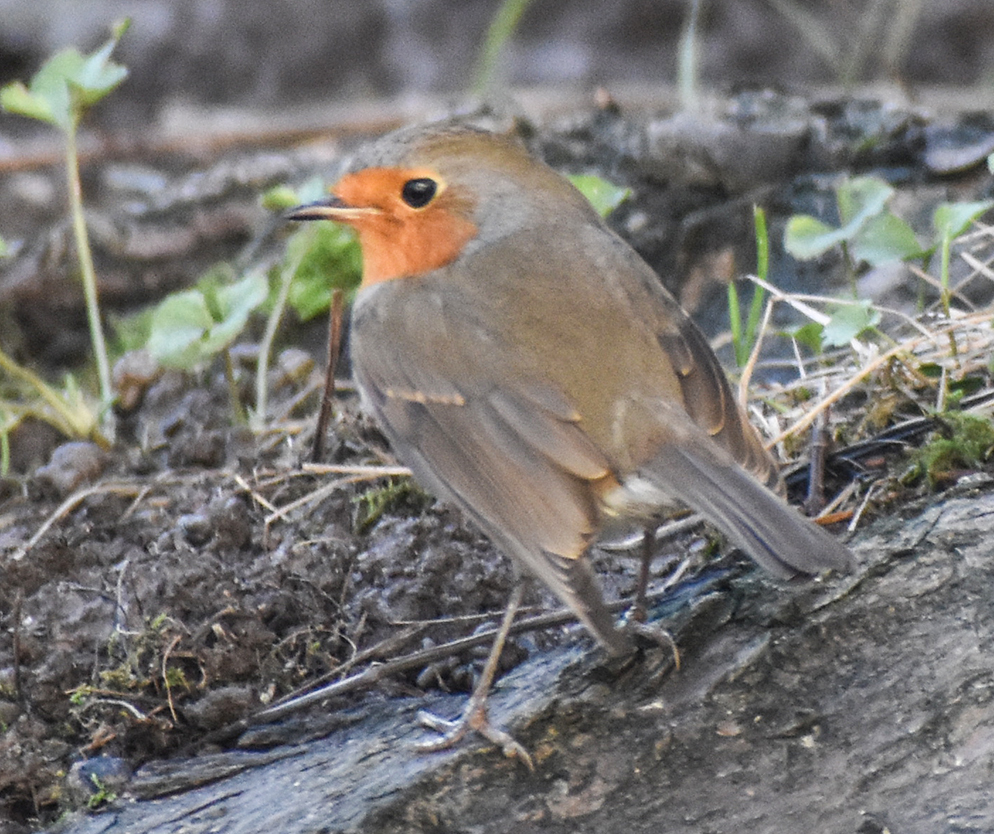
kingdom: Animalia
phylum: Chordata
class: Aves
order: Passeriformes
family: Muscicapidae
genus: Erithacus
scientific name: Erithacus rubecula
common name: European robin
